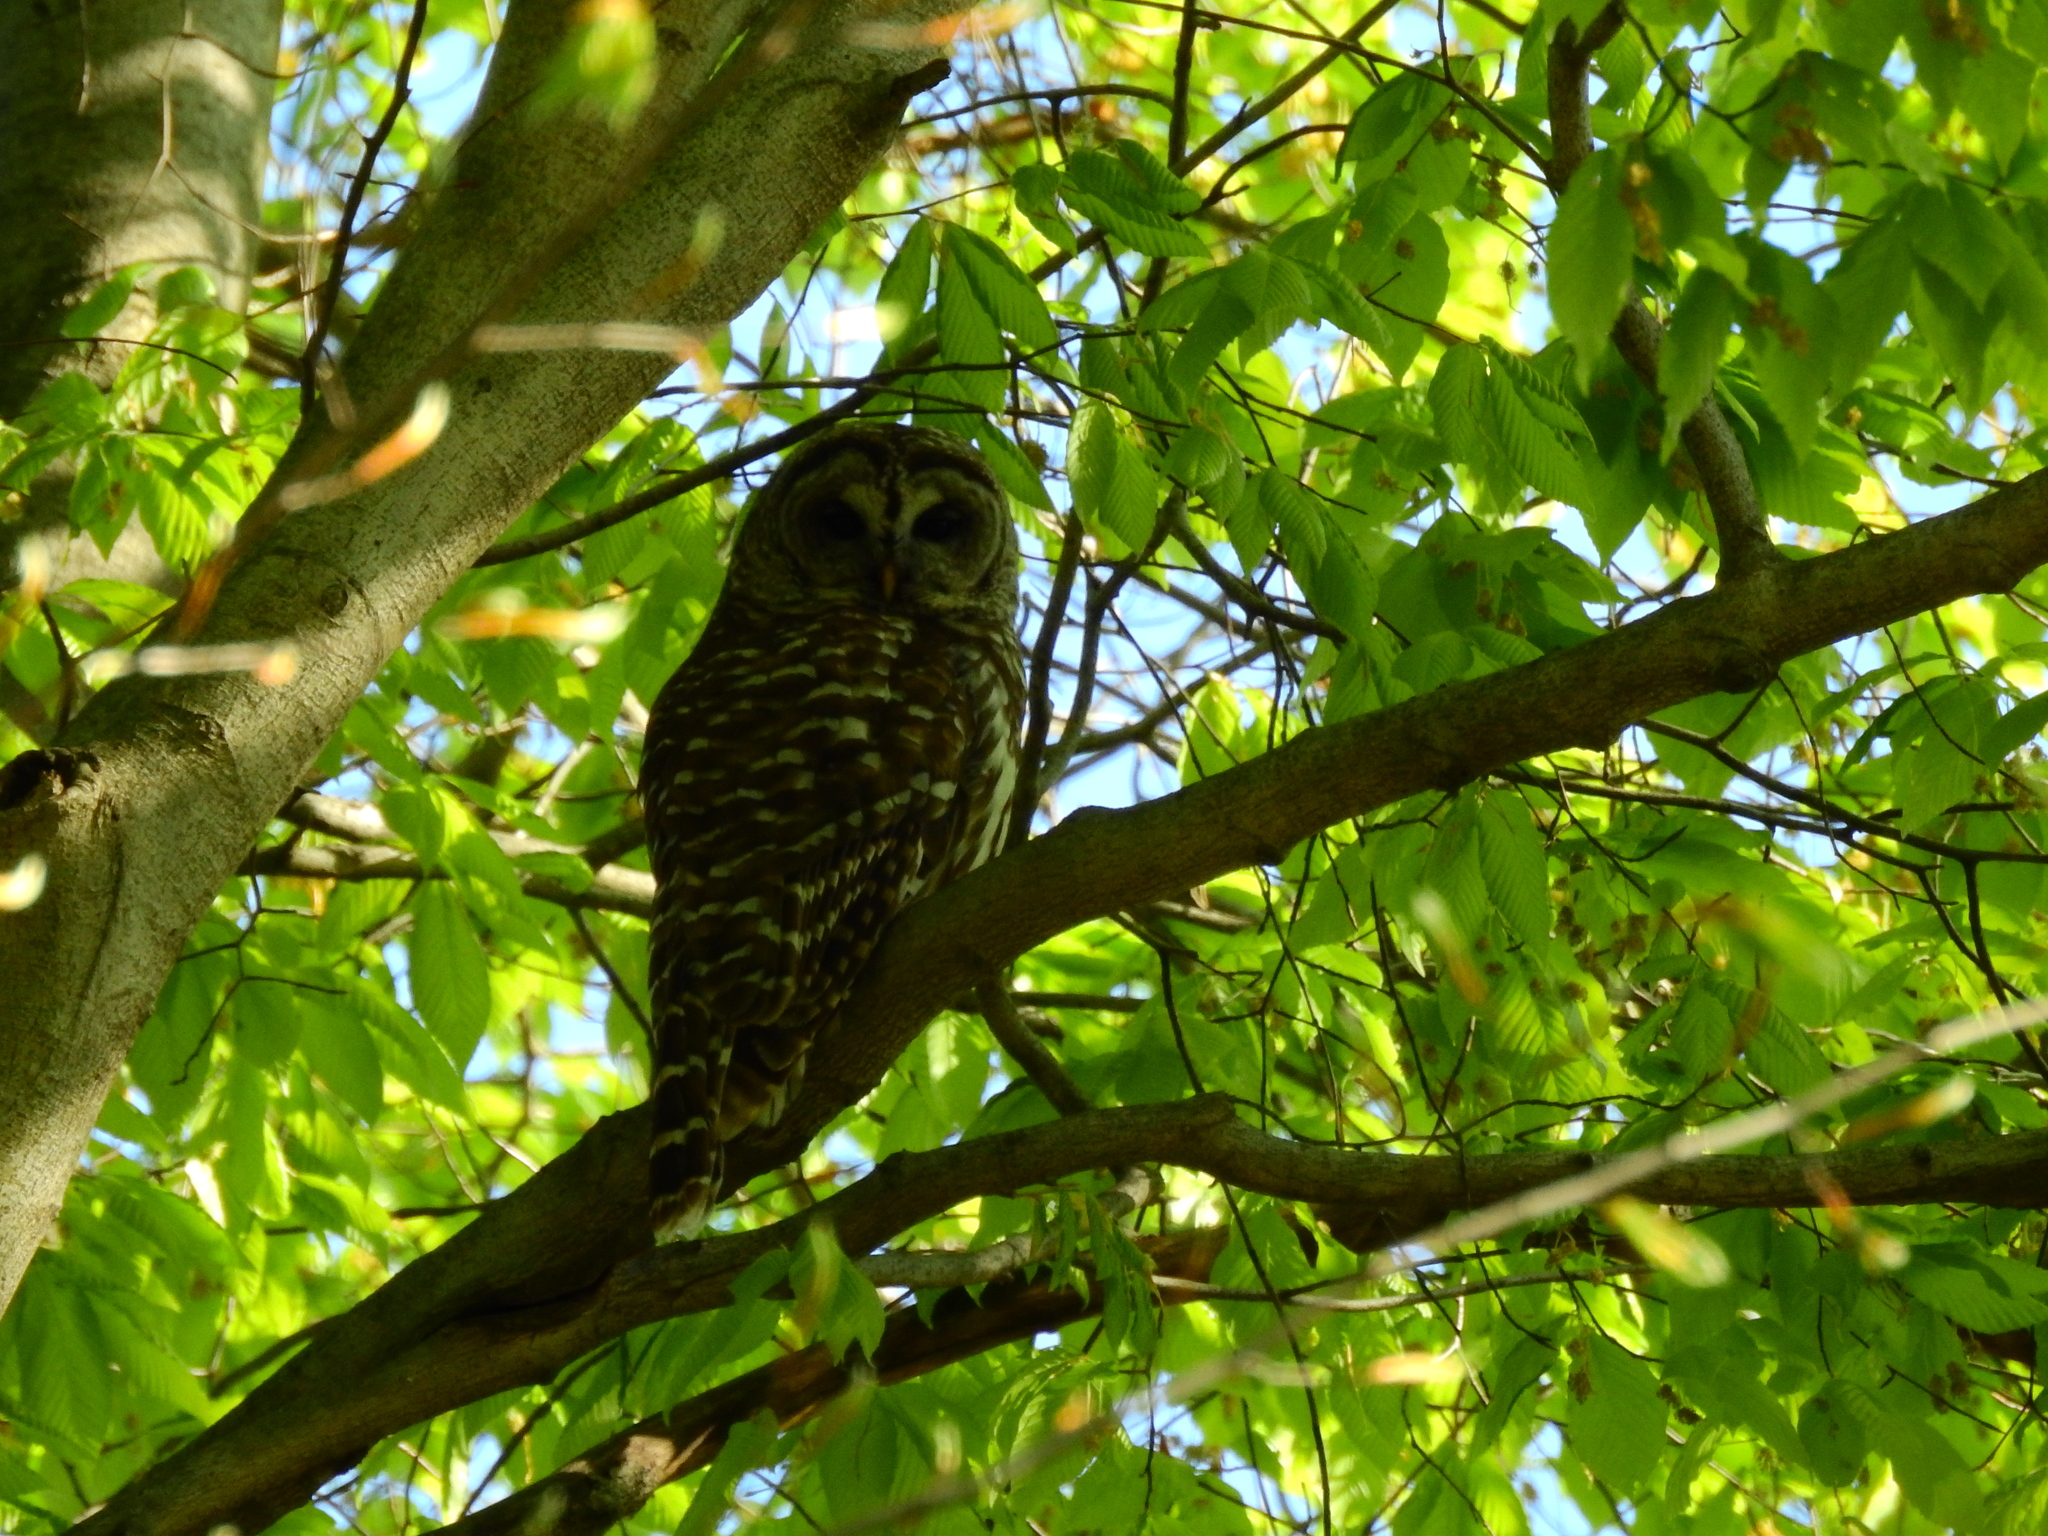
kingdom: Animalia
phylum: Chordata
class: Aves
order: Strigiformes
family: Strigidae
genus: Strix
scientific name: Strix varia
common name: Barred owl
